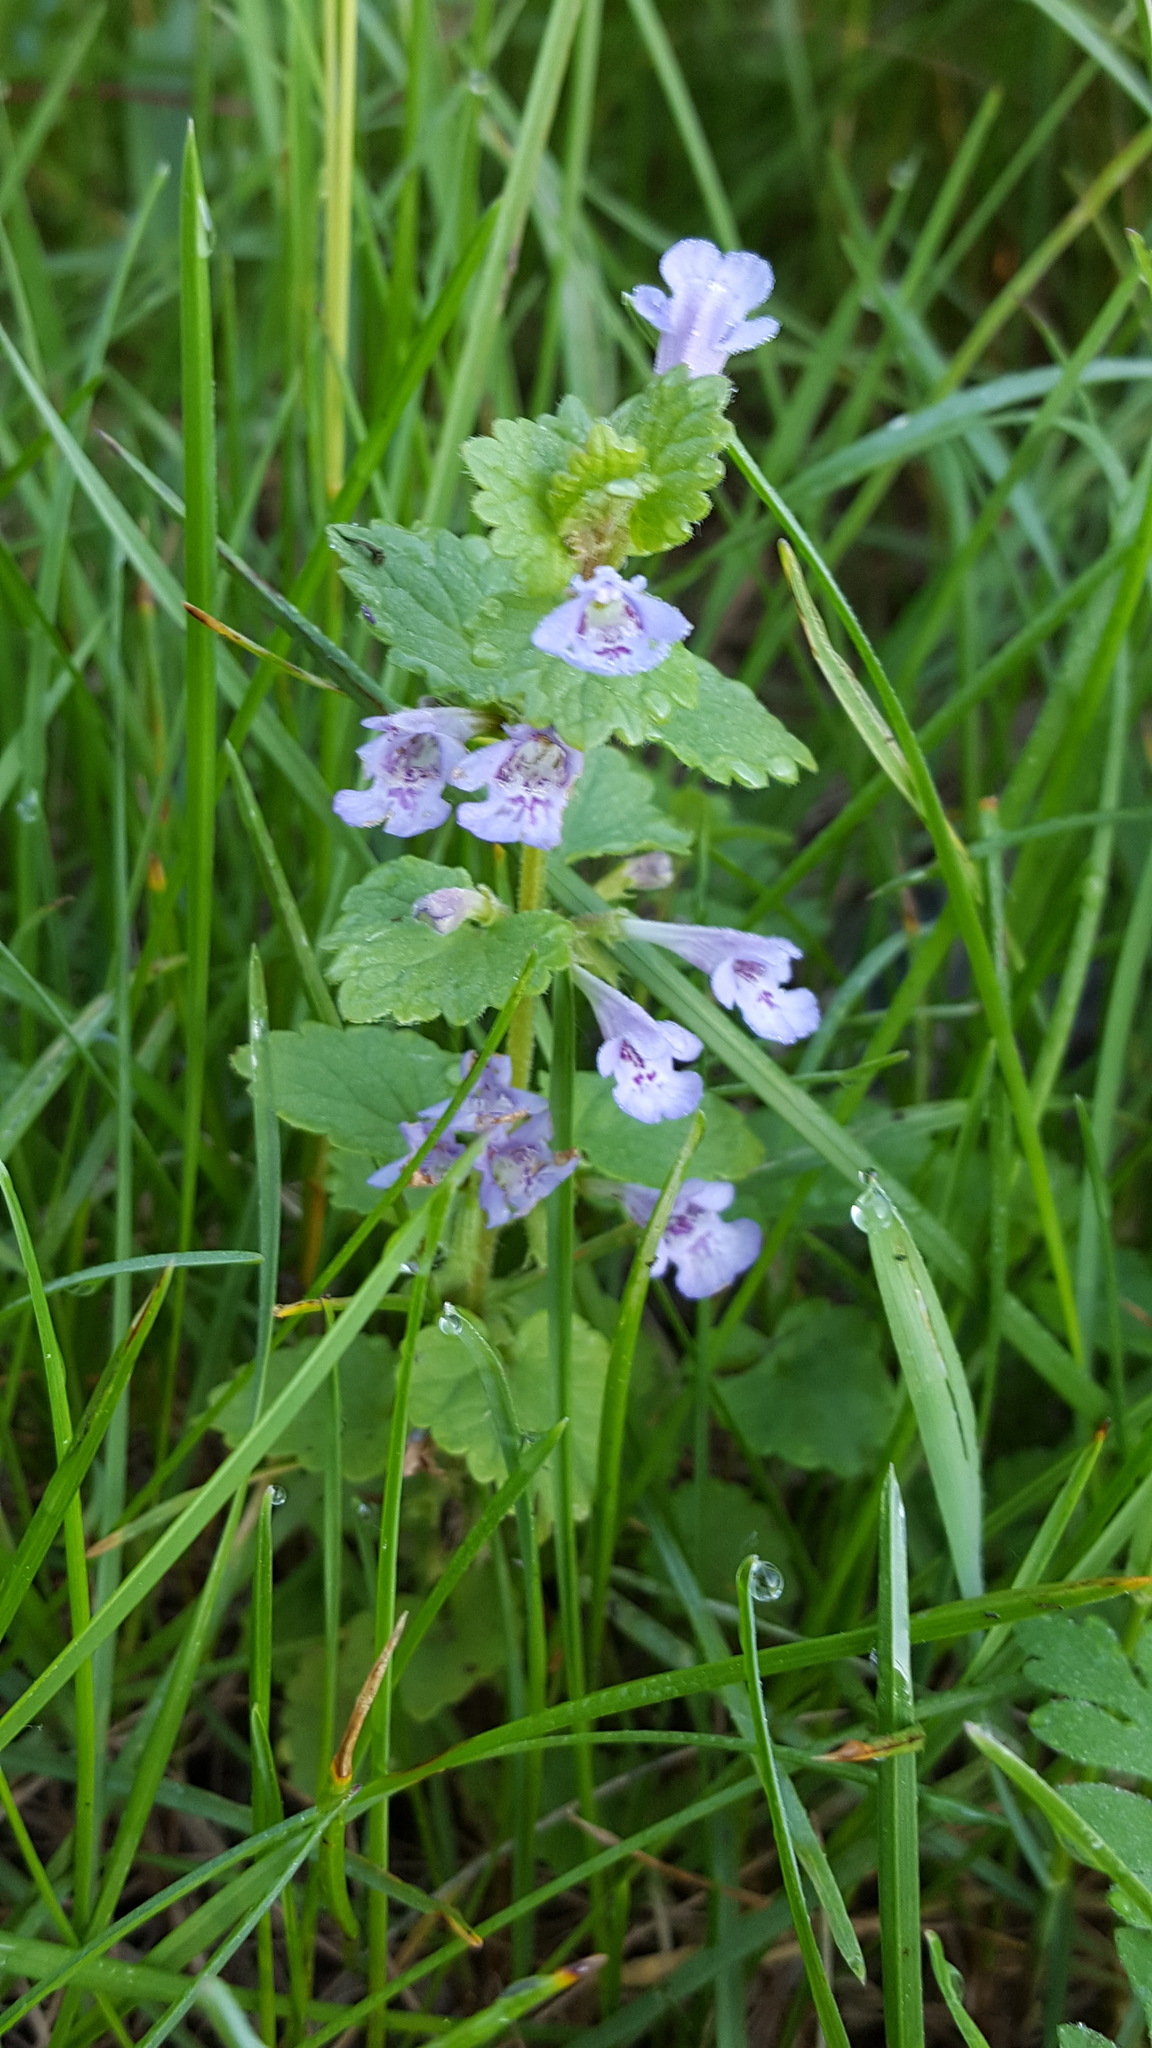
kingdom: Plantae
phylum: Tracheophyta
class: Magnoliopsida
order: Lamiales
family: Lamiaceae
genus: Glechoma
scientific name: Glechoma hederacea
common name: Ground ivy
